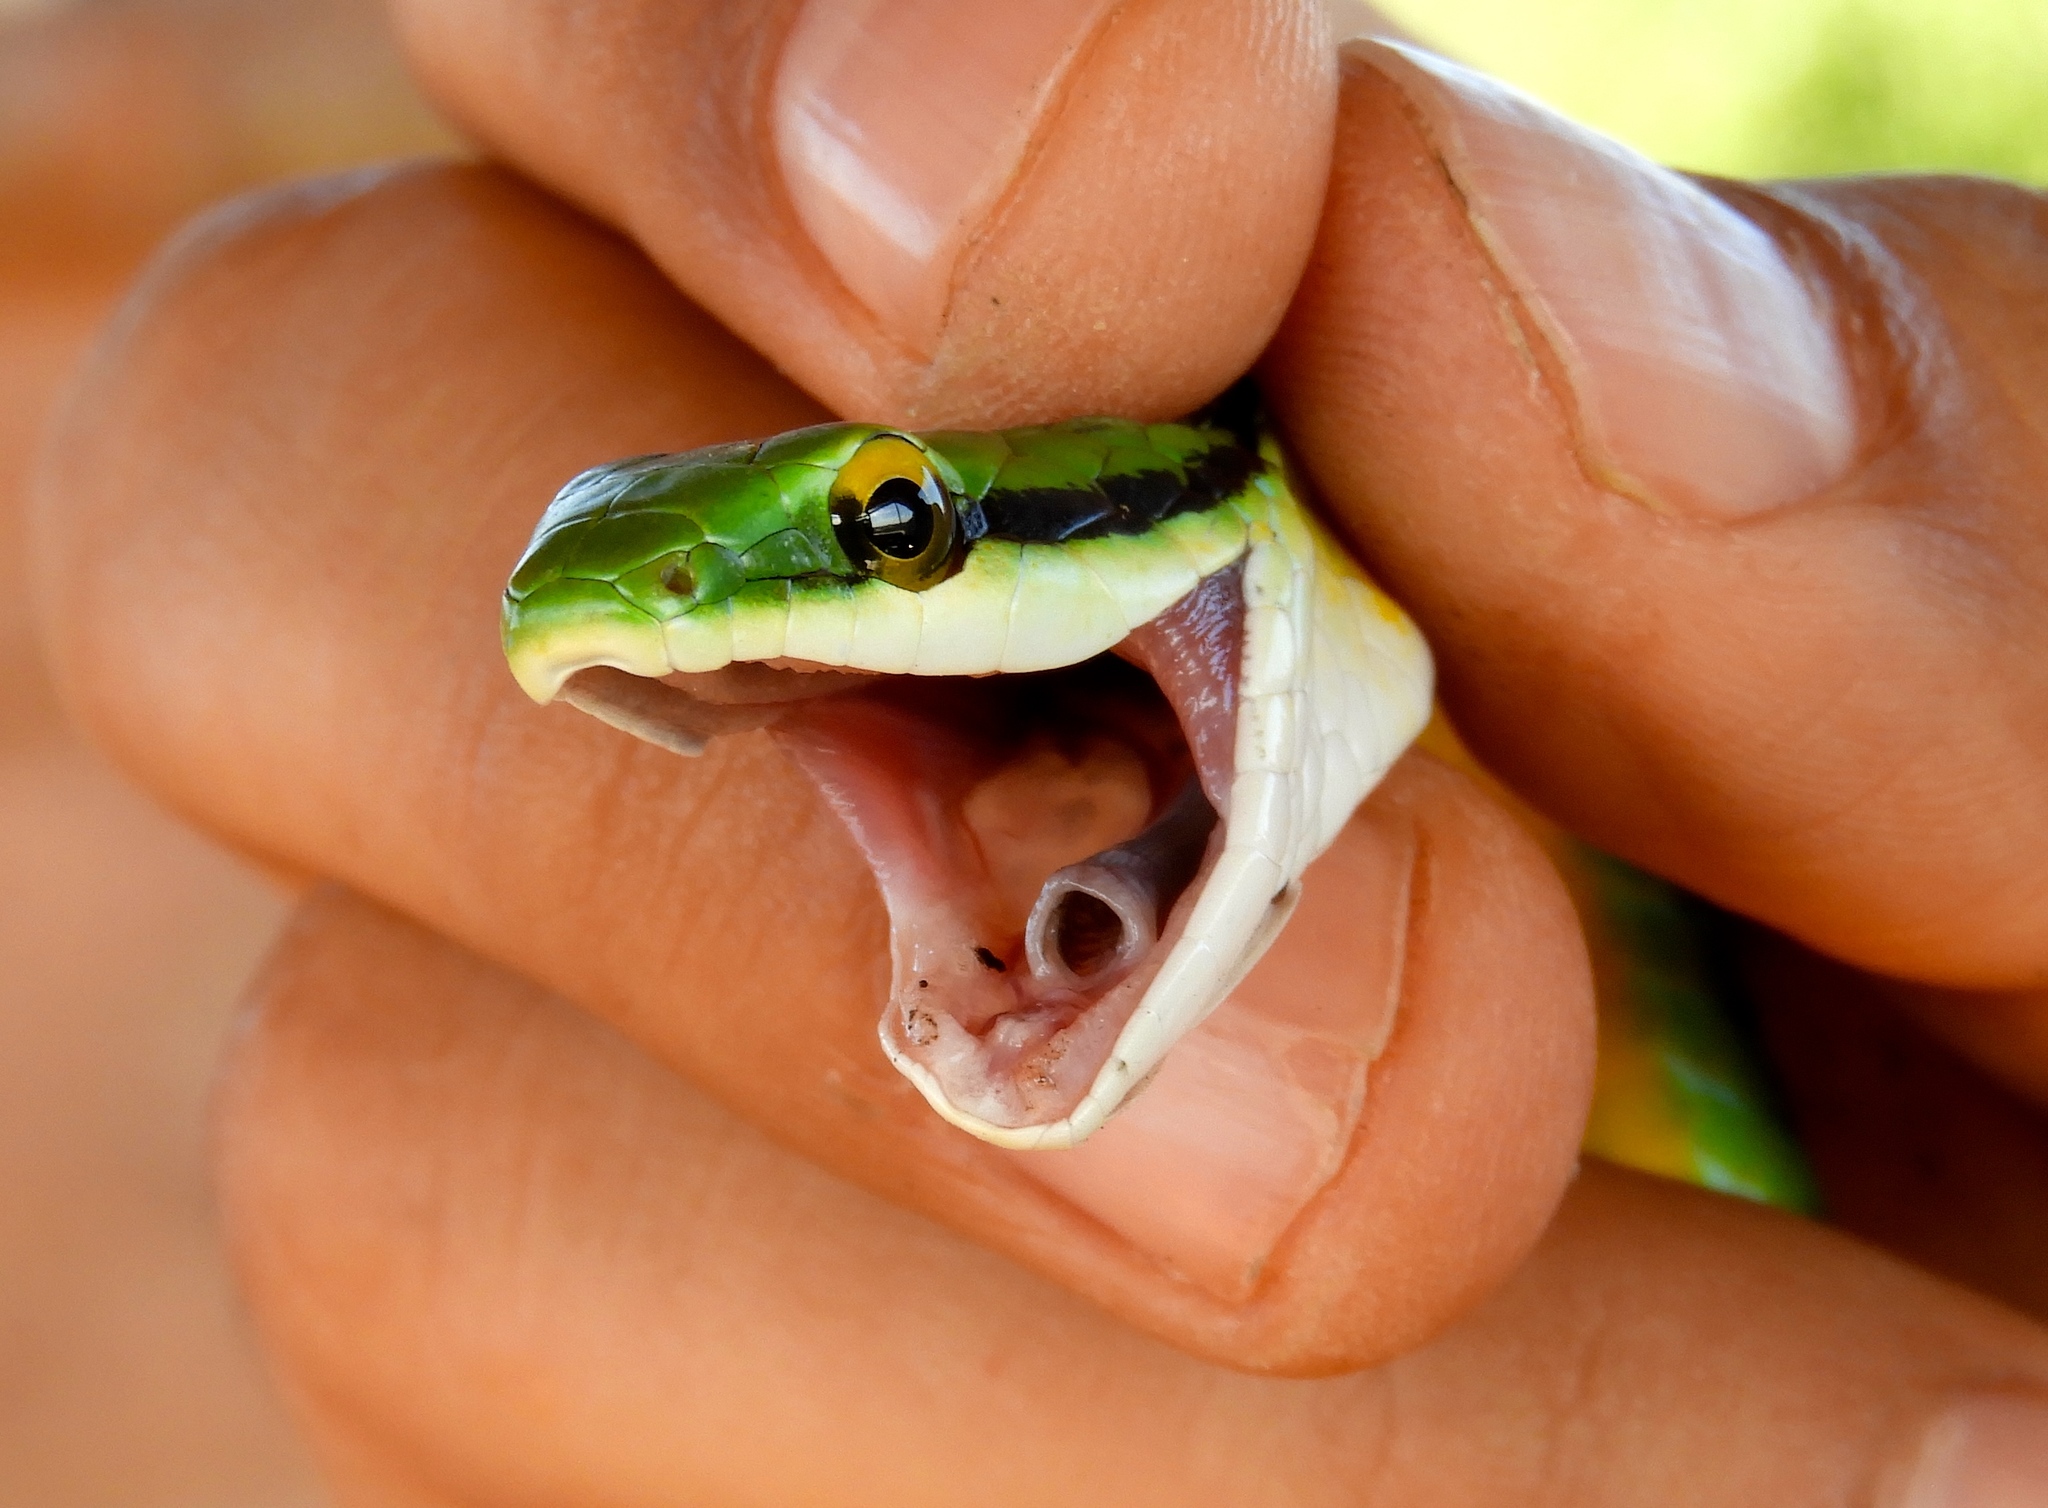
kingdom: Animalia
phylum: Chordata
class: Squamata
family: Colubridae
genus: Leptophis
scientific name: Leptophis diplotropis
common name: Pacific coast parrot snake
